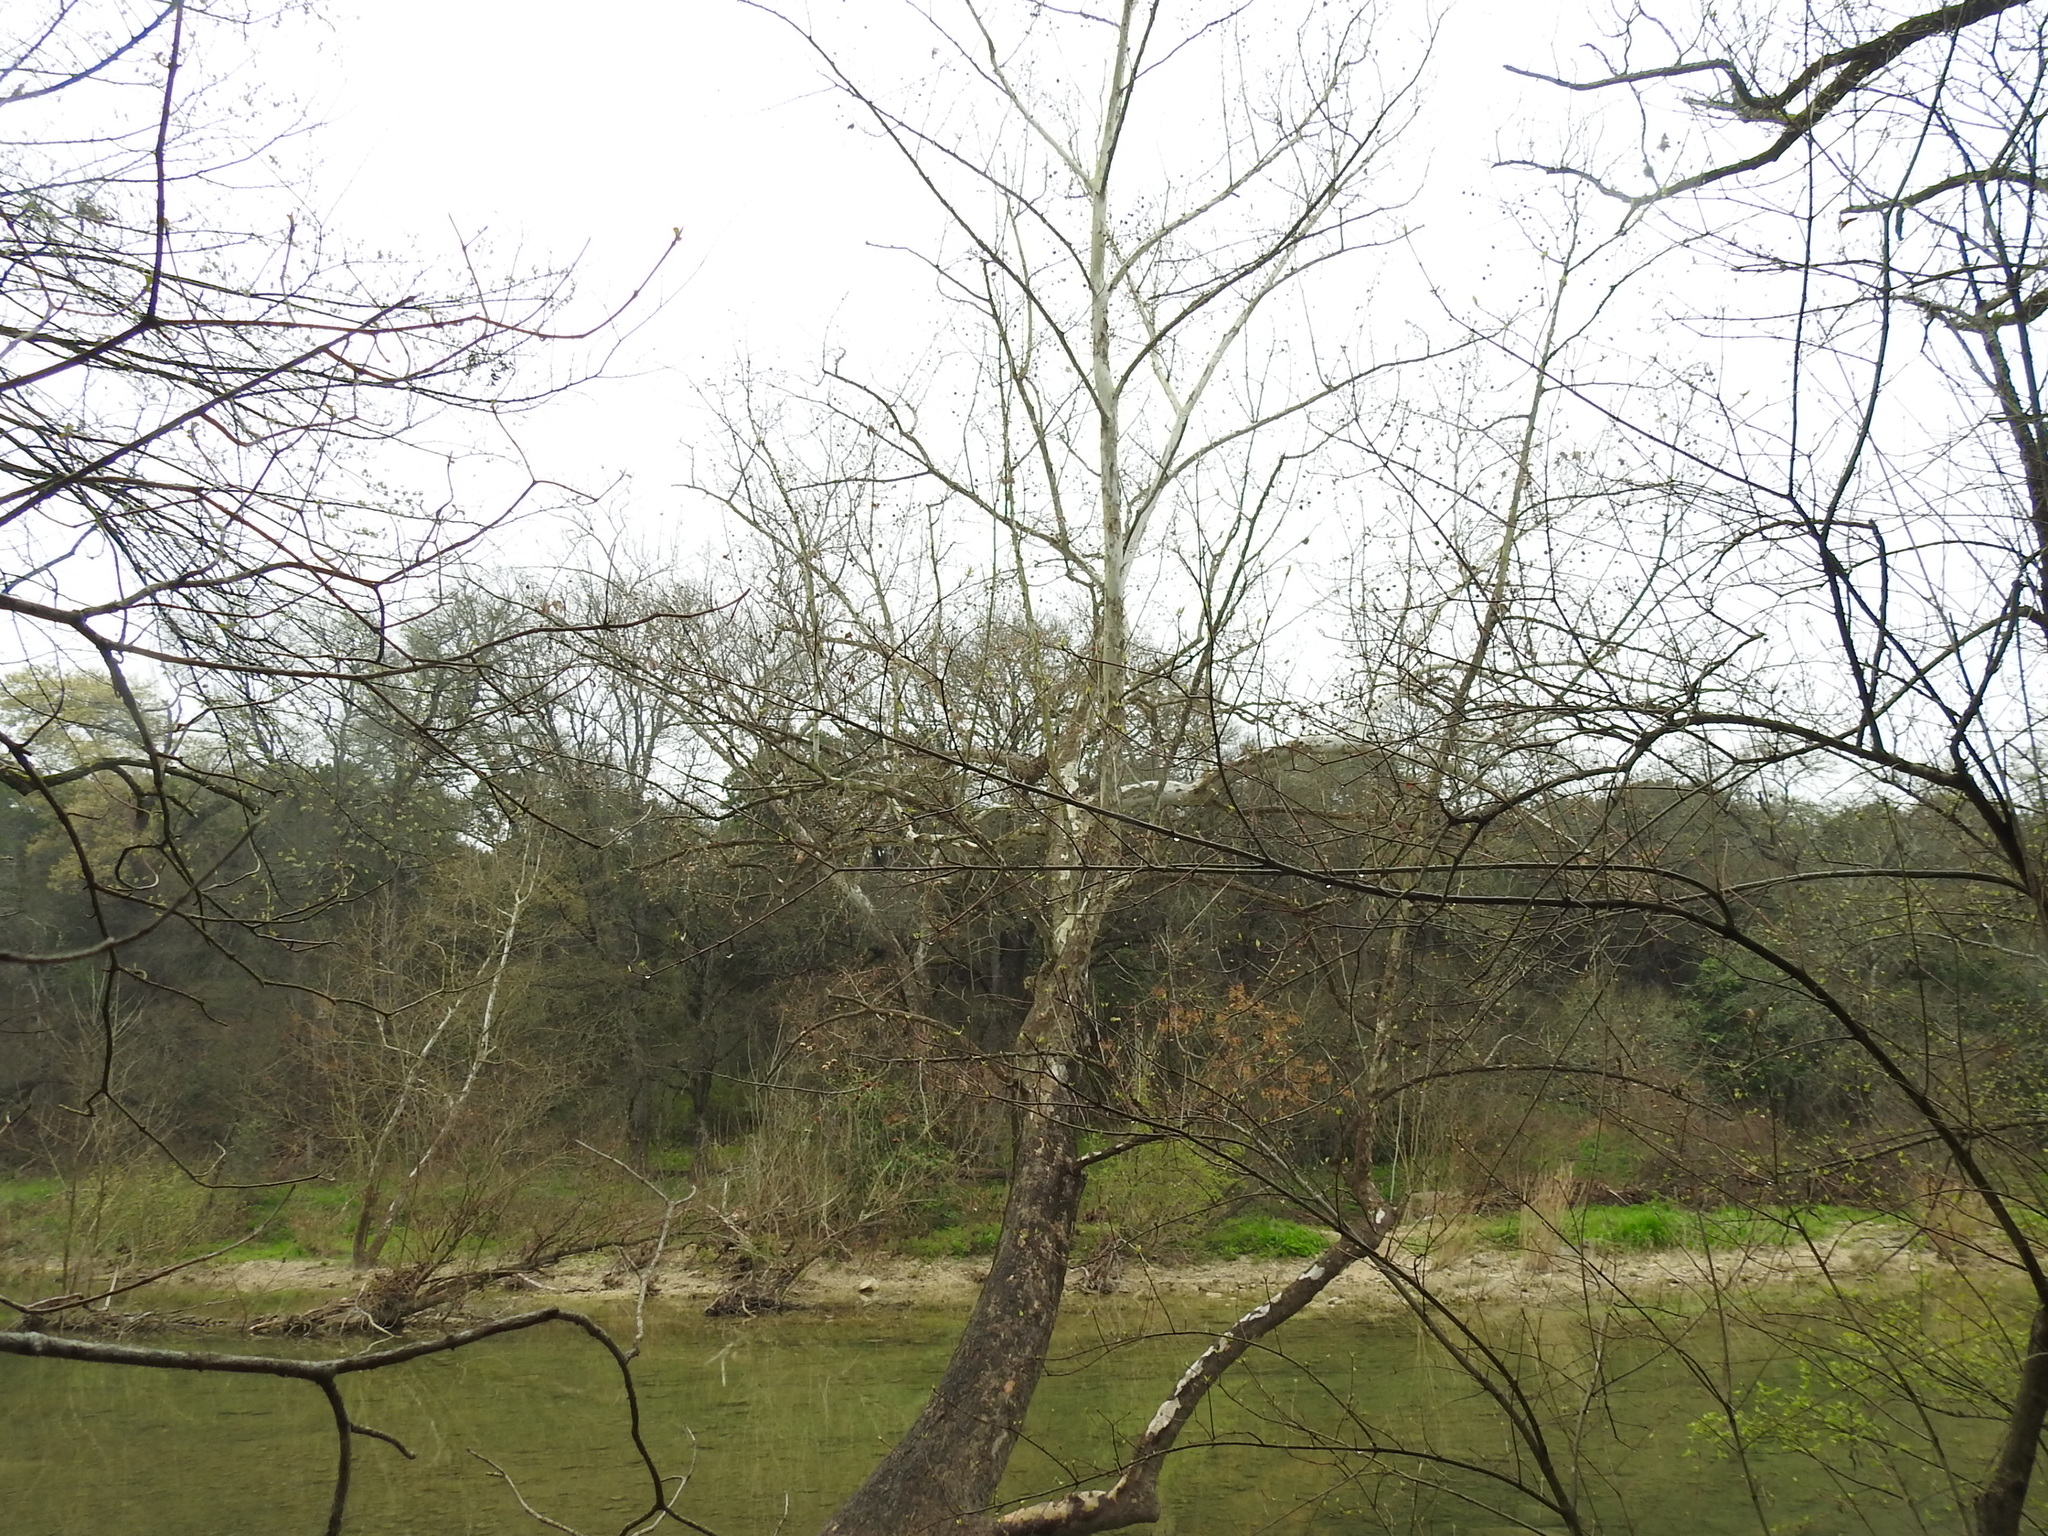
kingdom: Plantae
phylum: Tracheophyta
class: Magnoliopsida
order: Proteales
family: Platanaceae
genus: Platanus
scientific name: Platanus occidentalis
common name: American sycamore
